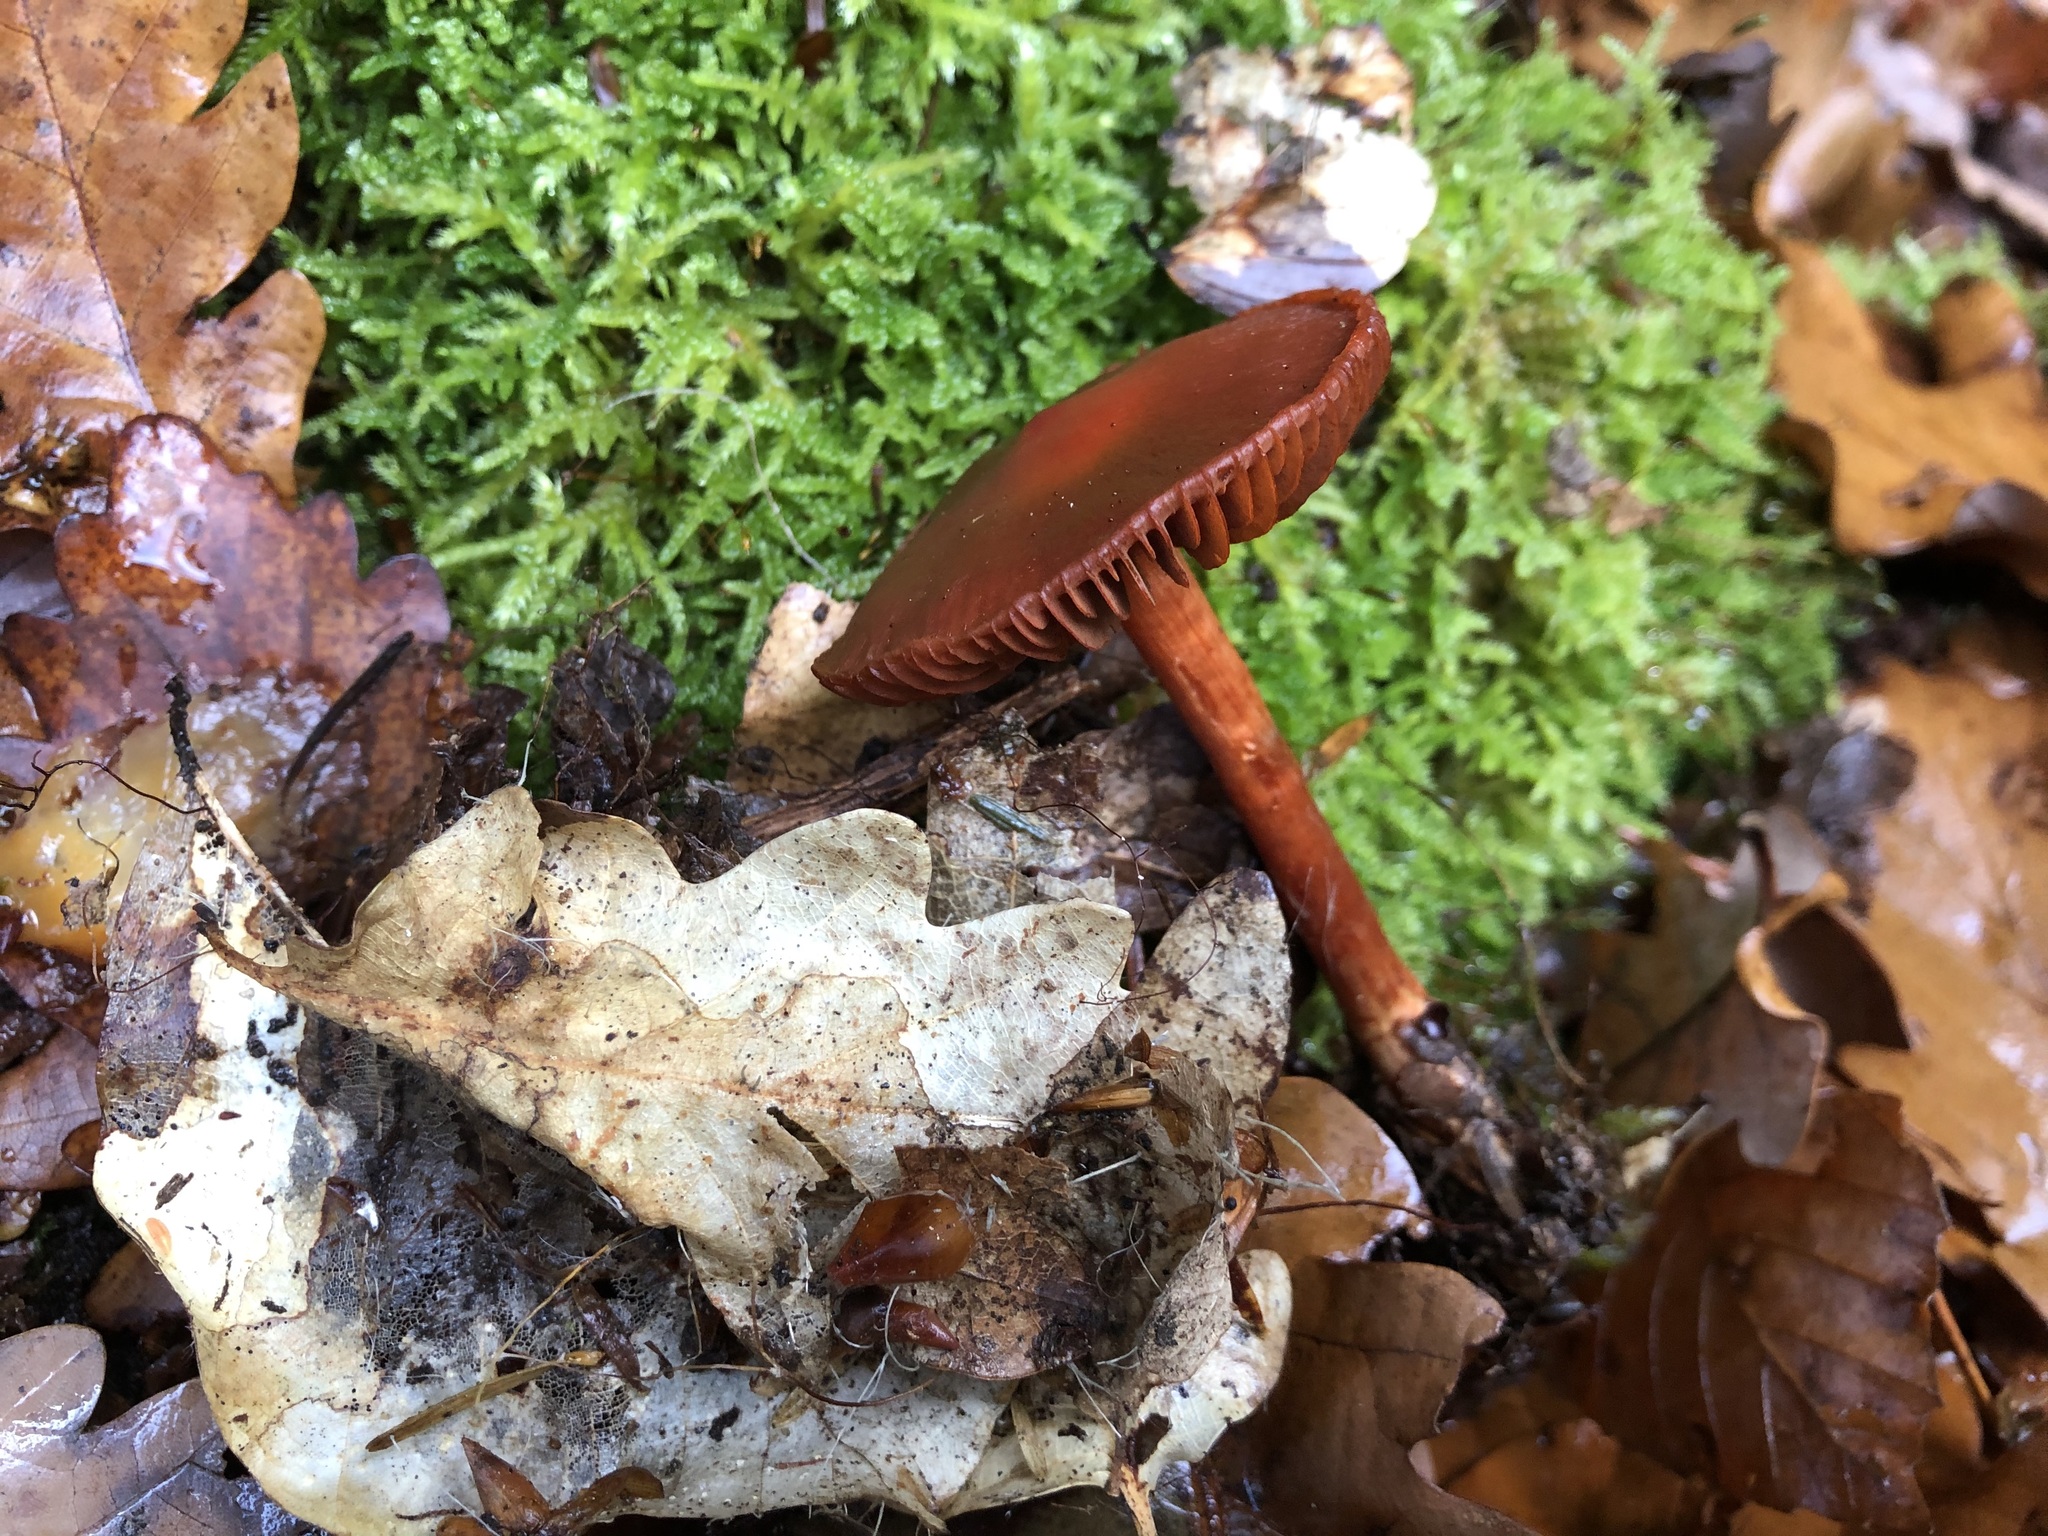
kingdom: Fungi
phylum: Basidiomycota
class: Agaricomycetes
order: Agaricales
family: Cortinariaceae
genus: Cortinarius
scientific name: Cortinarius cinnabarinus
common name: Cinnabar webcap
